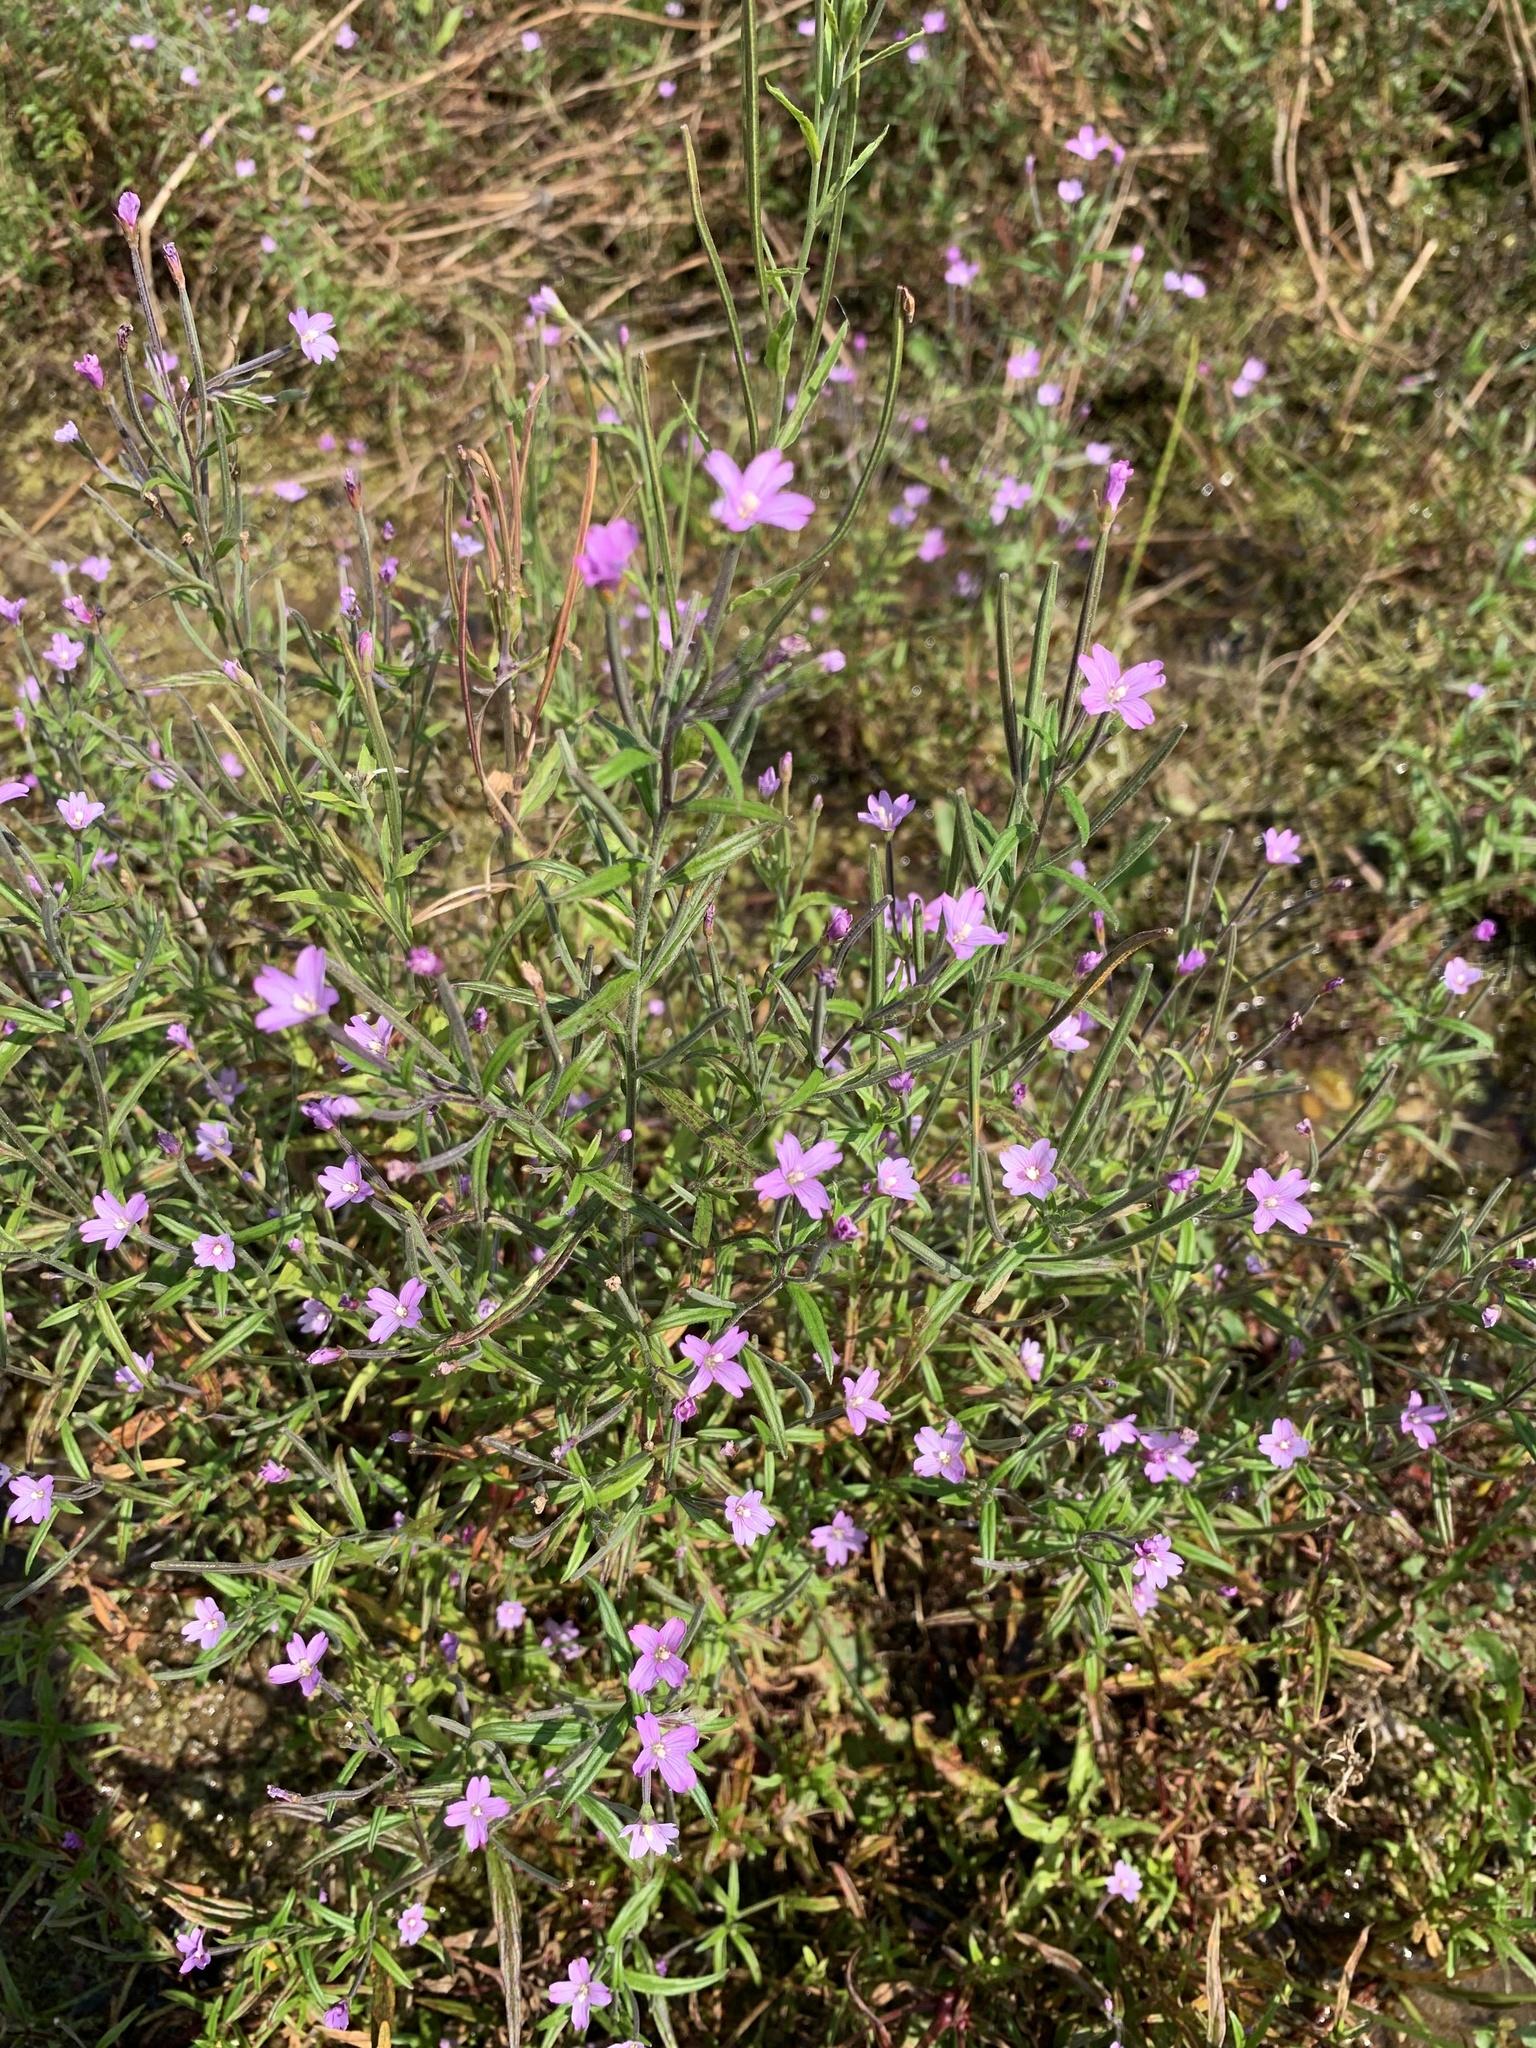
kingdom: Plantae
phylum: Tracheophyta
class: Magnoliopsida
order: Myrtales
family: Onagraceae
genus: Epilobium
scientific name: Epilobium palustre
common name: Marsh willowherb
